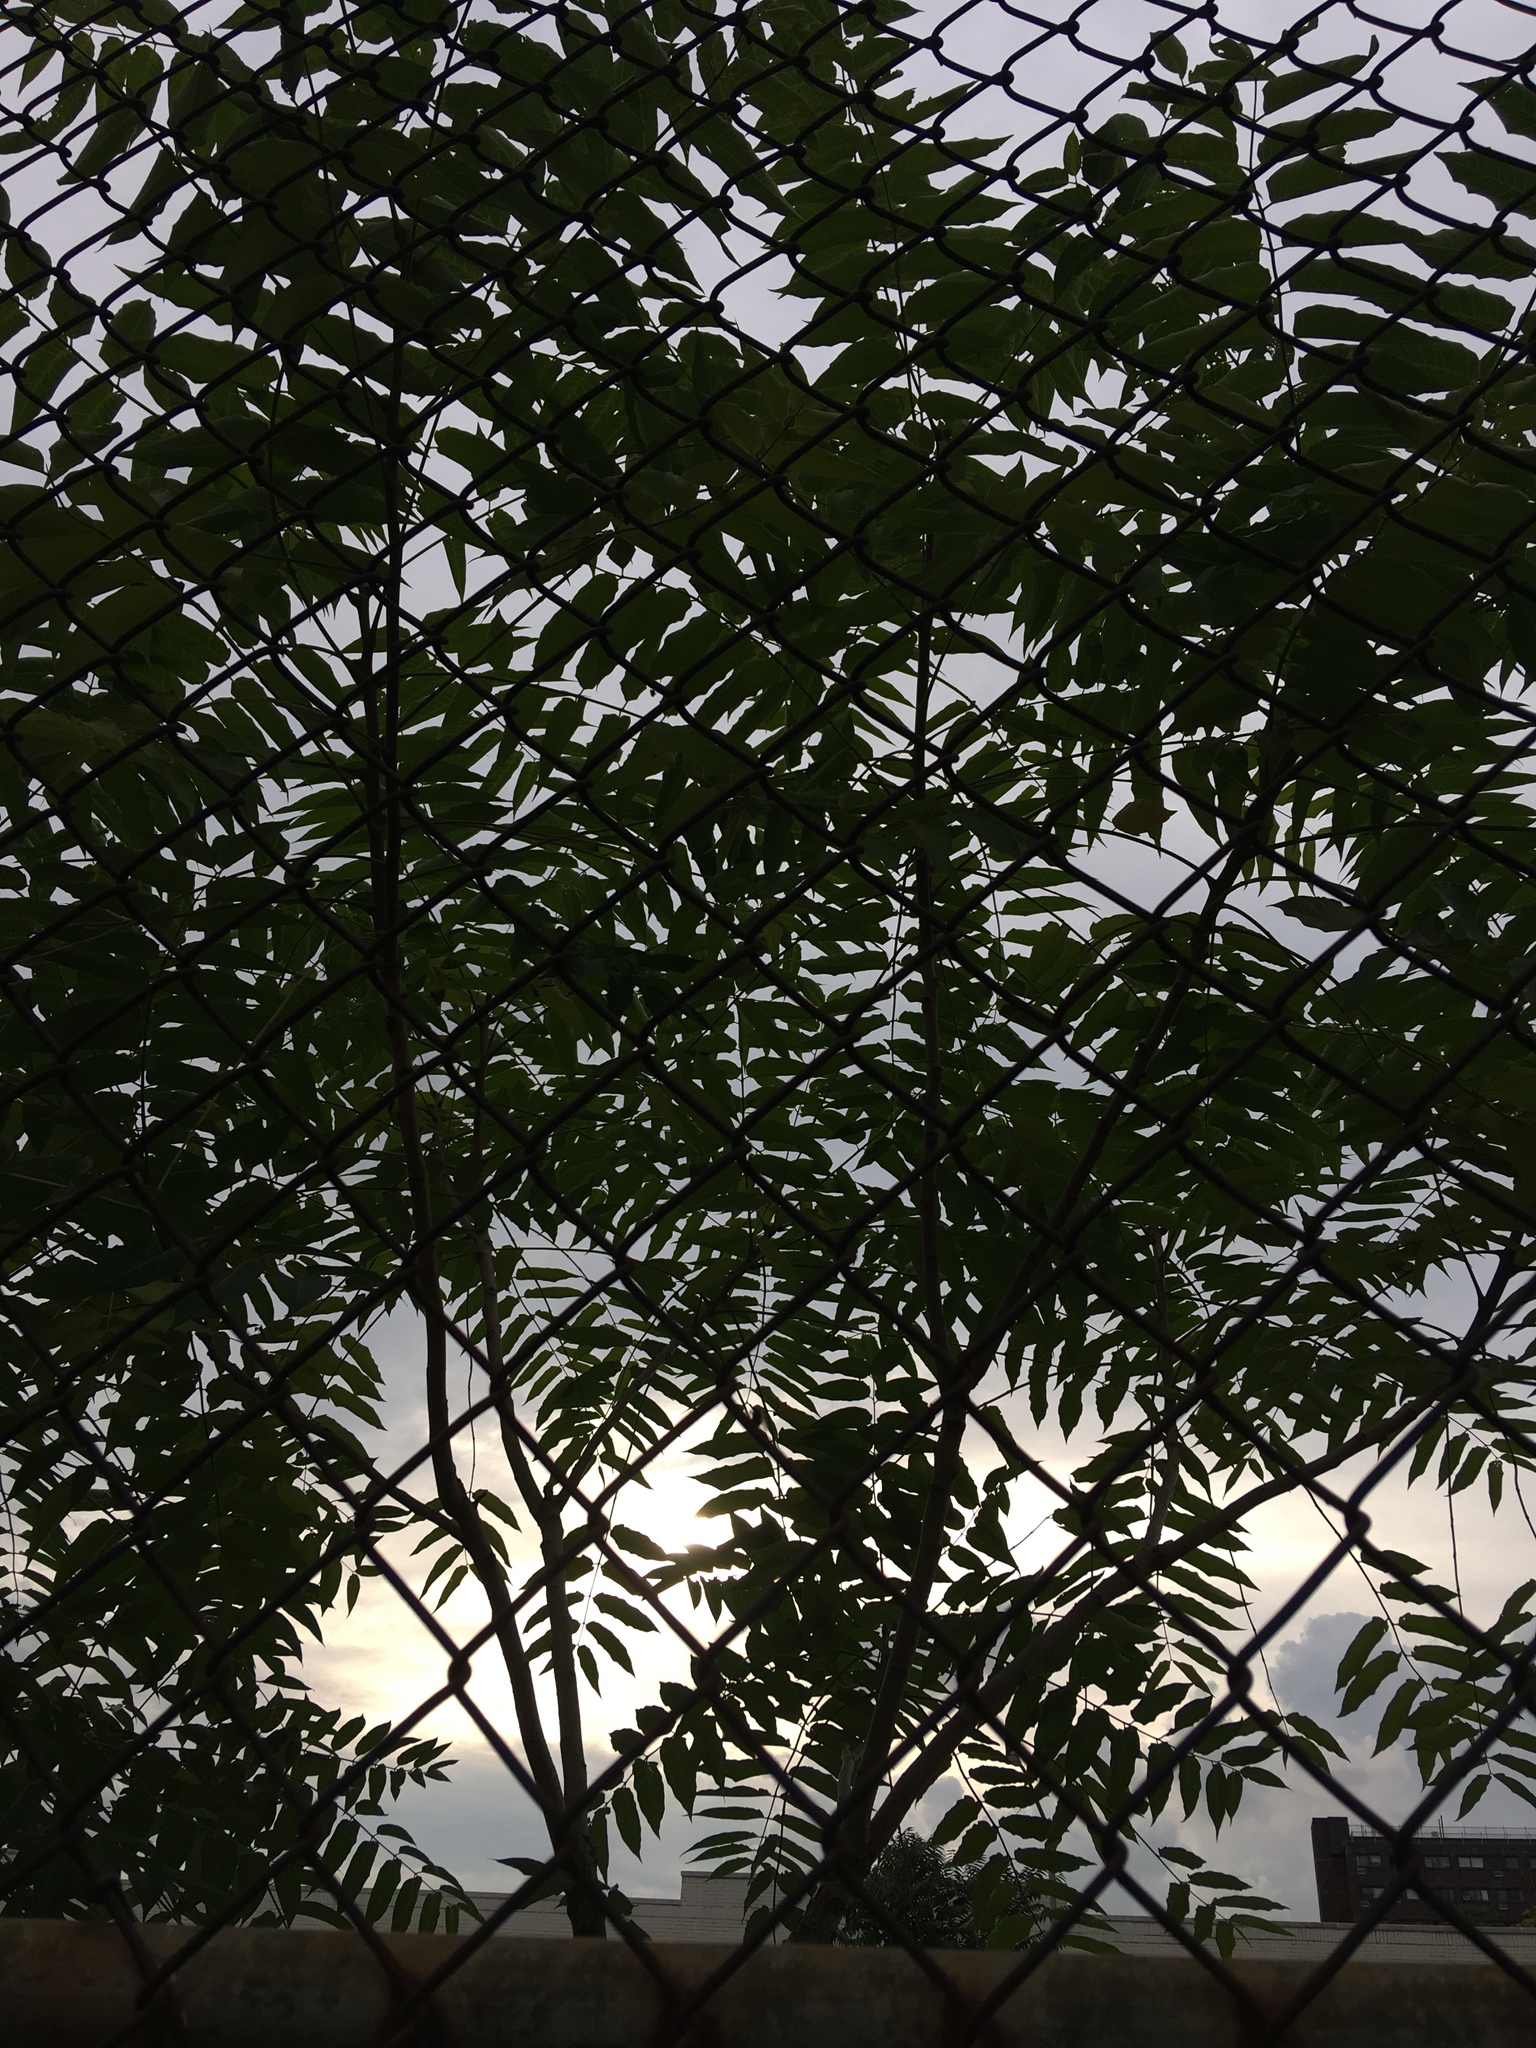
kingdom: Plantae
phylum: Tracheophyta
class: Magnoliopsida
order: Sapindales
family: Simaroubaceae
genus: Ailanthus
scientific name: Ailanthus altissima
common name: Tree-of-heaven
